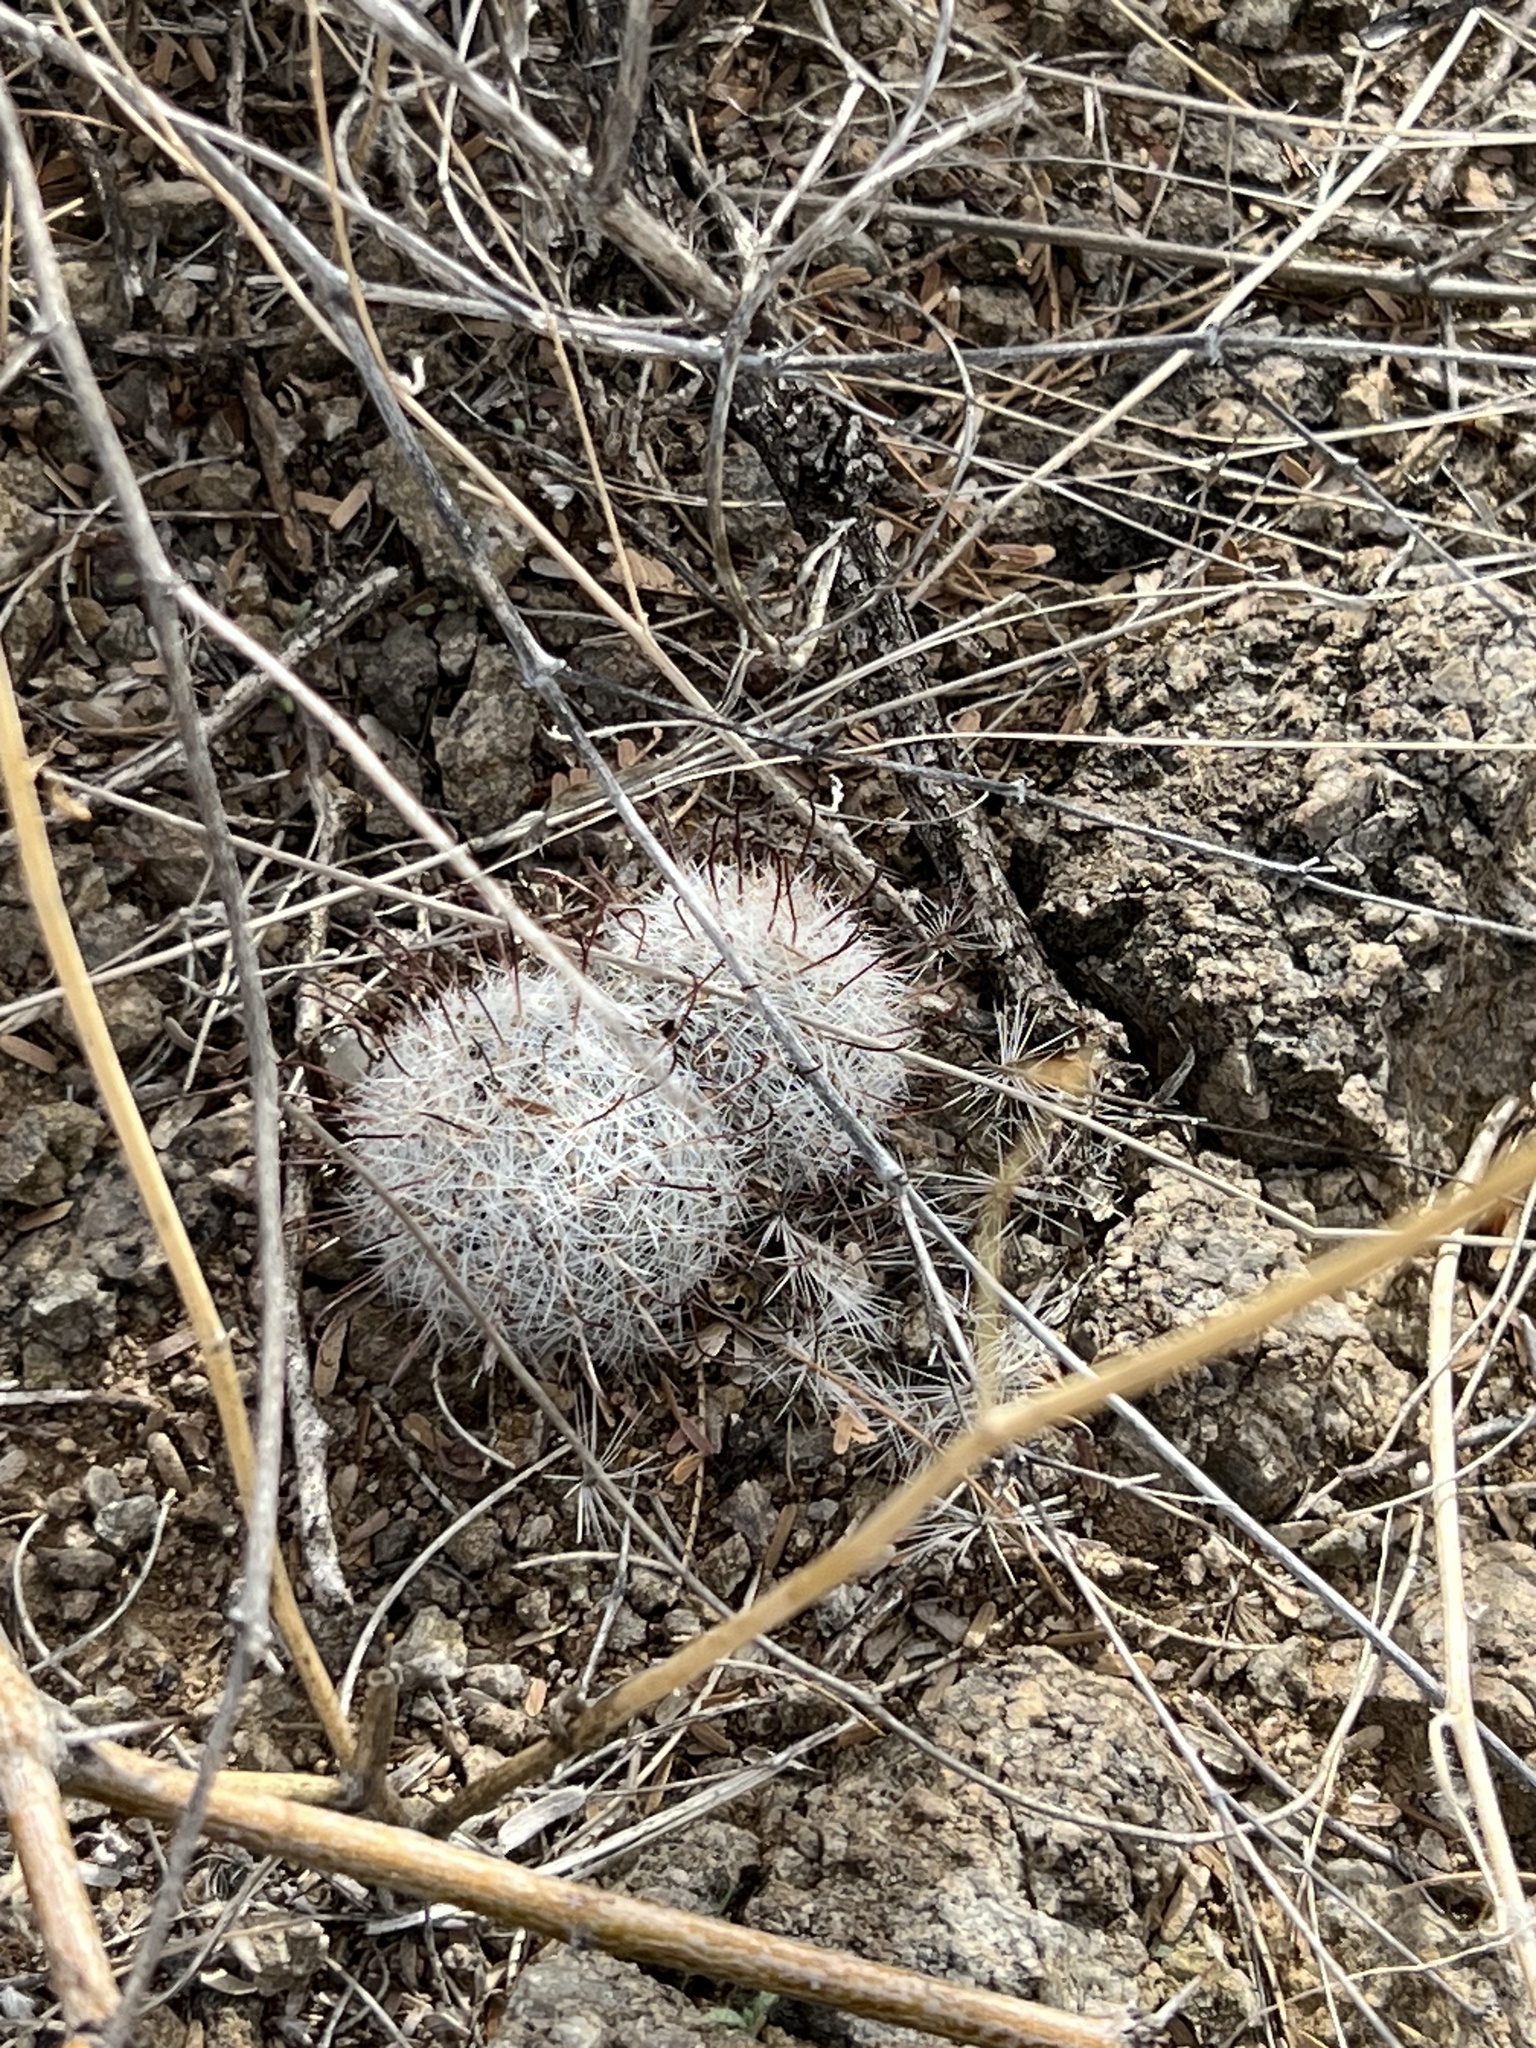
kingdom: Plantae
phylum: Tracheophyta
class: Magnoliopsida
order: Caryophyllales
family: Cactaceae
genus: Cochemiea
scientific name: Cochemiea grahamii
